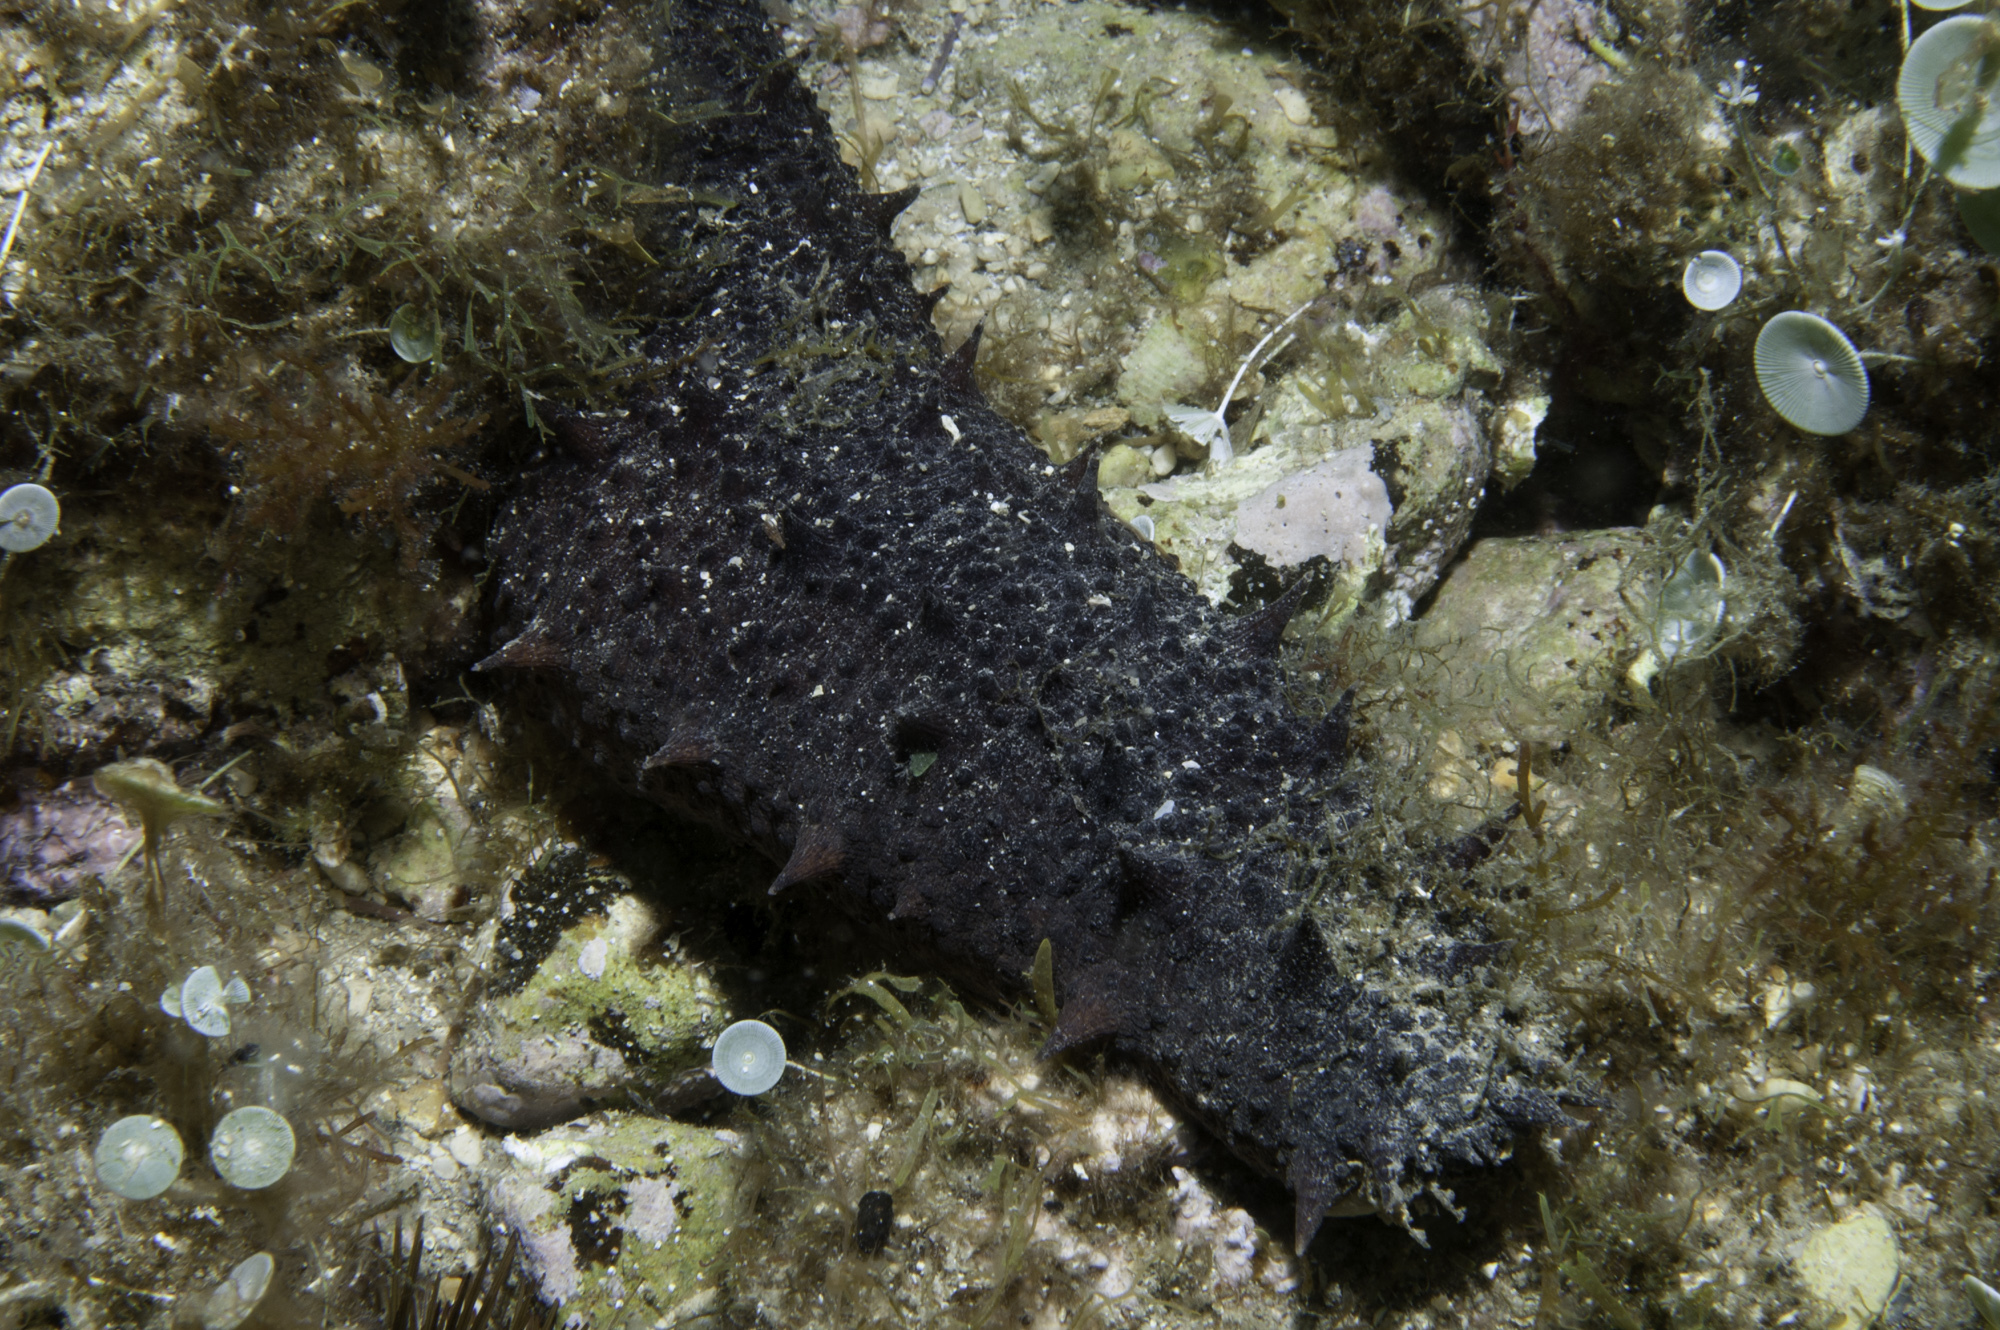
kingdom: Animalia
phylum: Echinodermata
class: Holothuroidea
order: Holothuriida
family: Holothuriidae
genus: Holothuria
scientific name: Holothuria tubulosa
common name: Cotton-spinner
